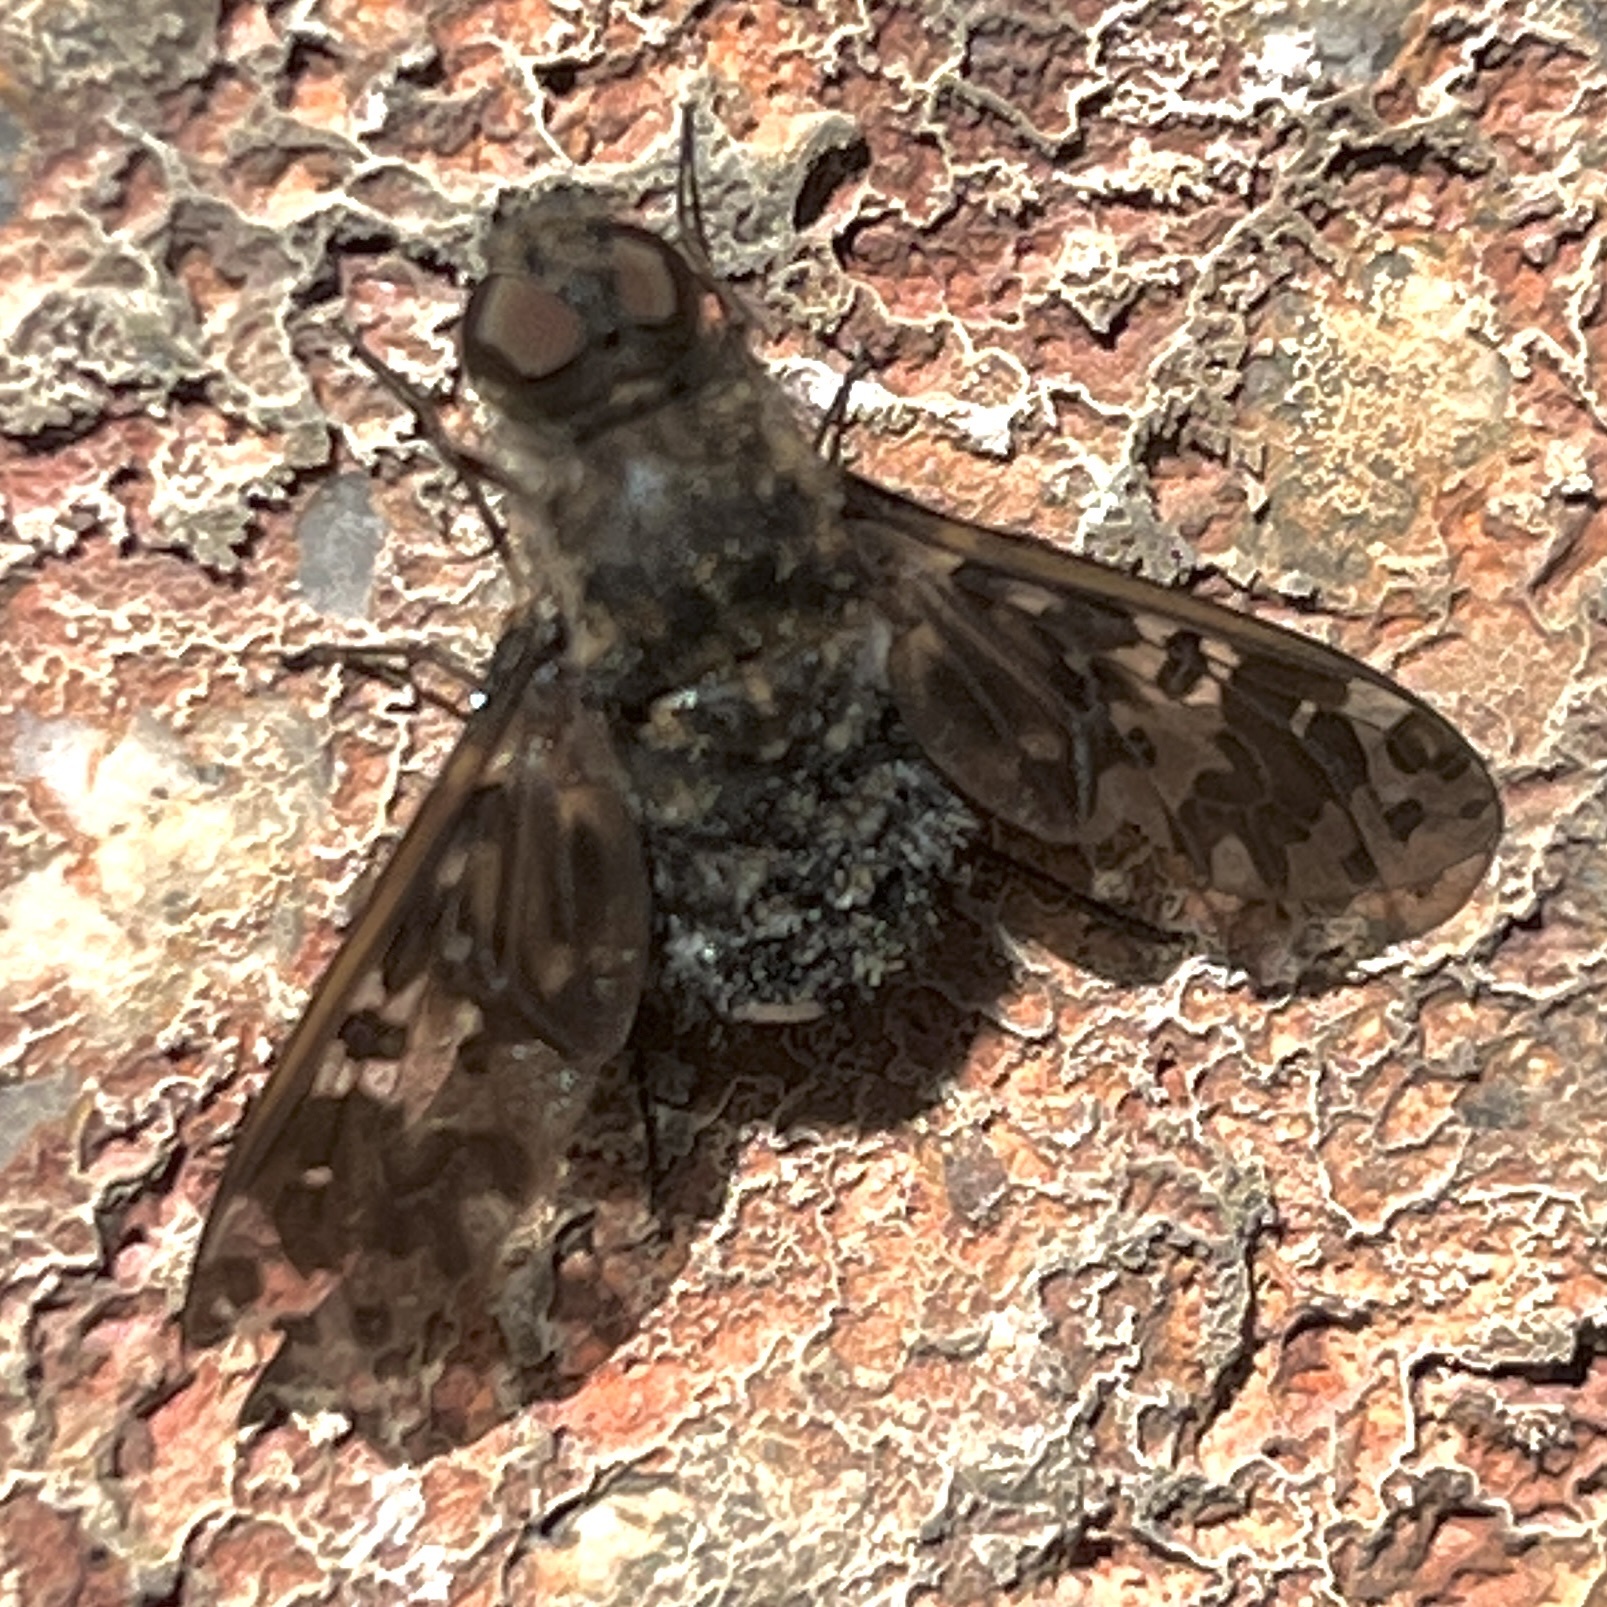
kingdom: Animalia
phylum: Arthropoda
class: Insecta
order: Diptera
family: Bombyliidae
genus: Anthrax
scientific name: Anthrax pithecius
